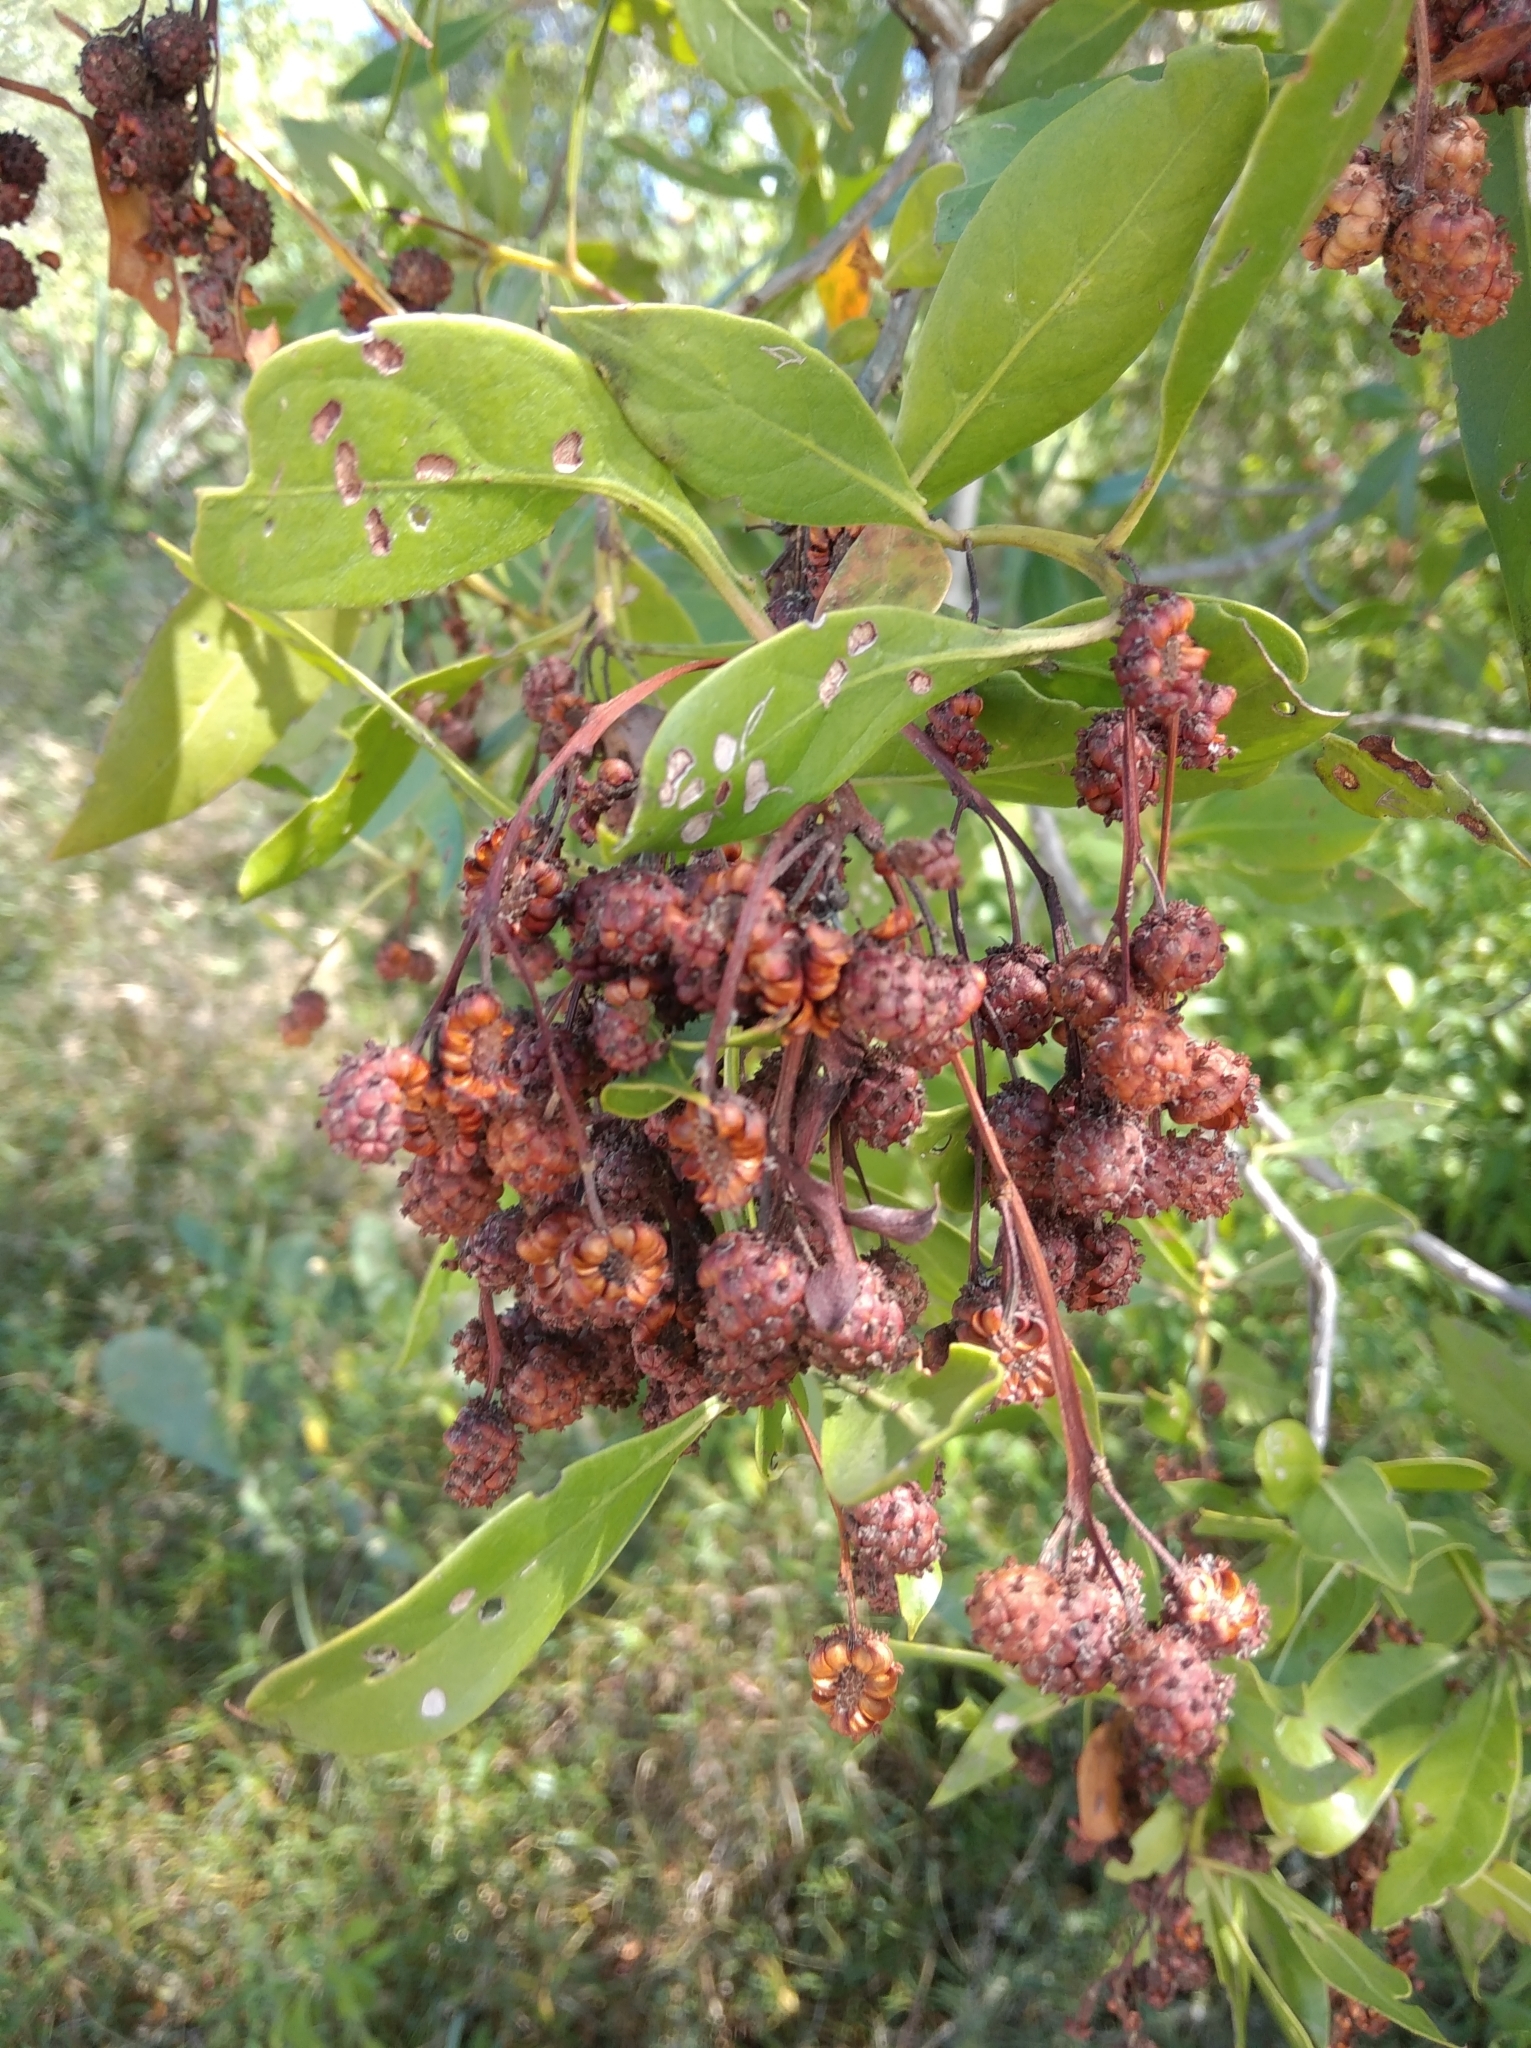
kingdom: Plantae
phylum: Tracheophyta
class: Magnoliopsida
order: Myrtales
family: Combretaceae
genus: Conocarpus
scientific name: Conocarpus erectus
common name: Button mangrove
